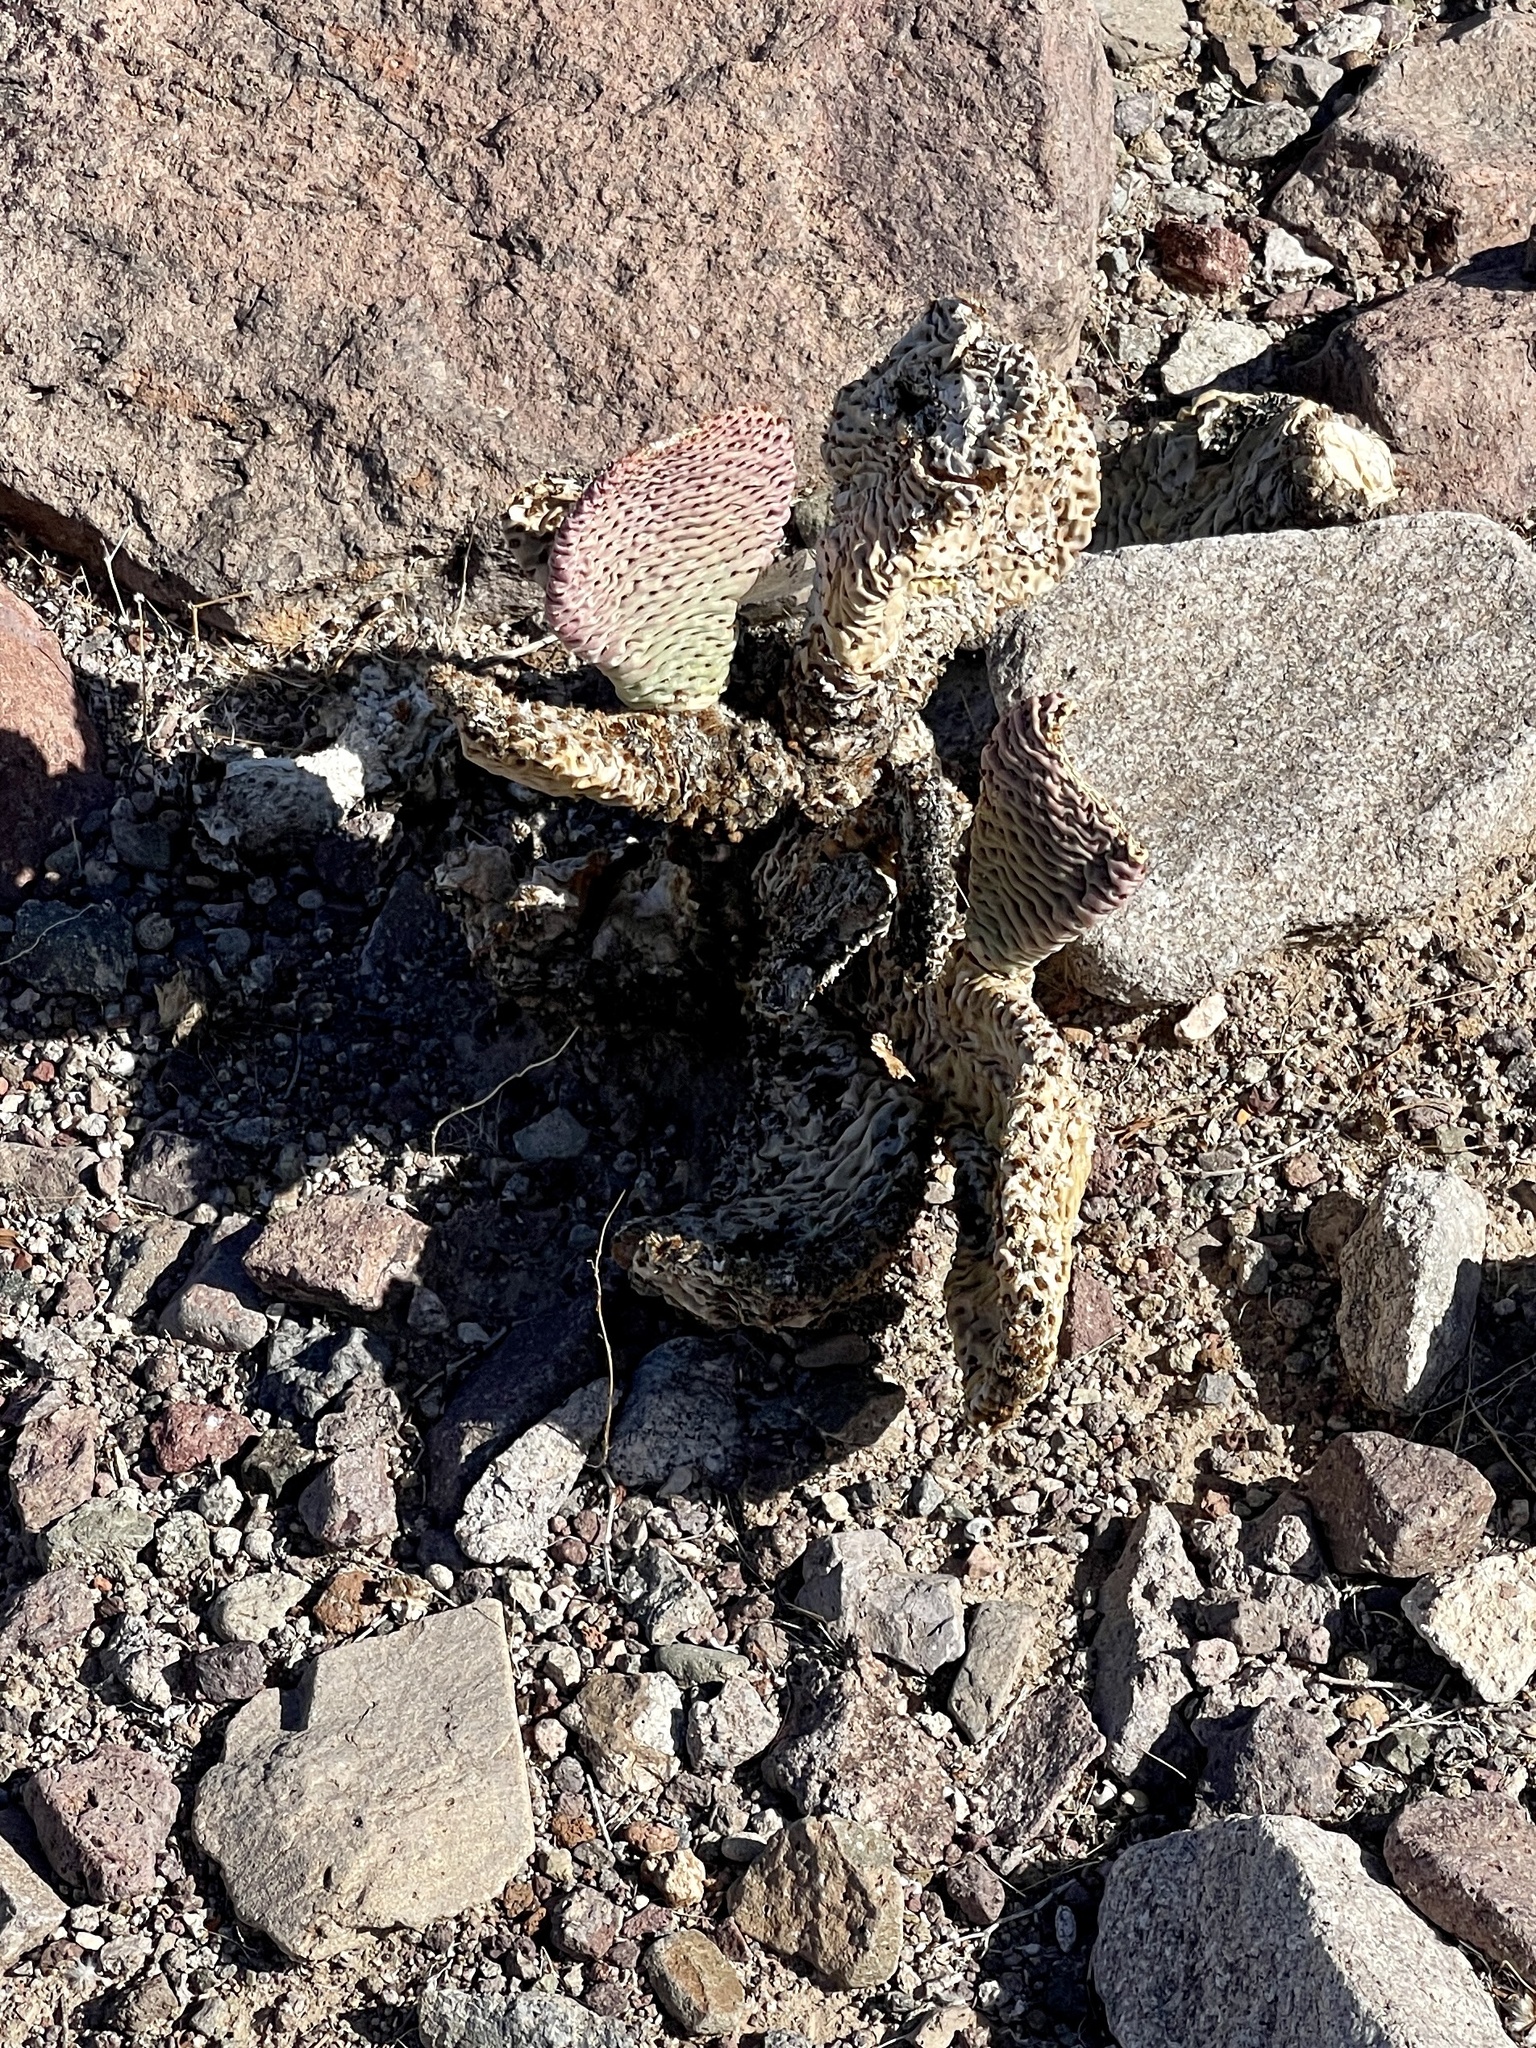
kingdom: Plantae
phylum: Tracheophyta
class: Magnoliopsida
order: Caryophyllales
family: Cactaceae
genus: Opuntia
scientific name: Opuntia basilaris
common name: Beavertail prickly-pear
